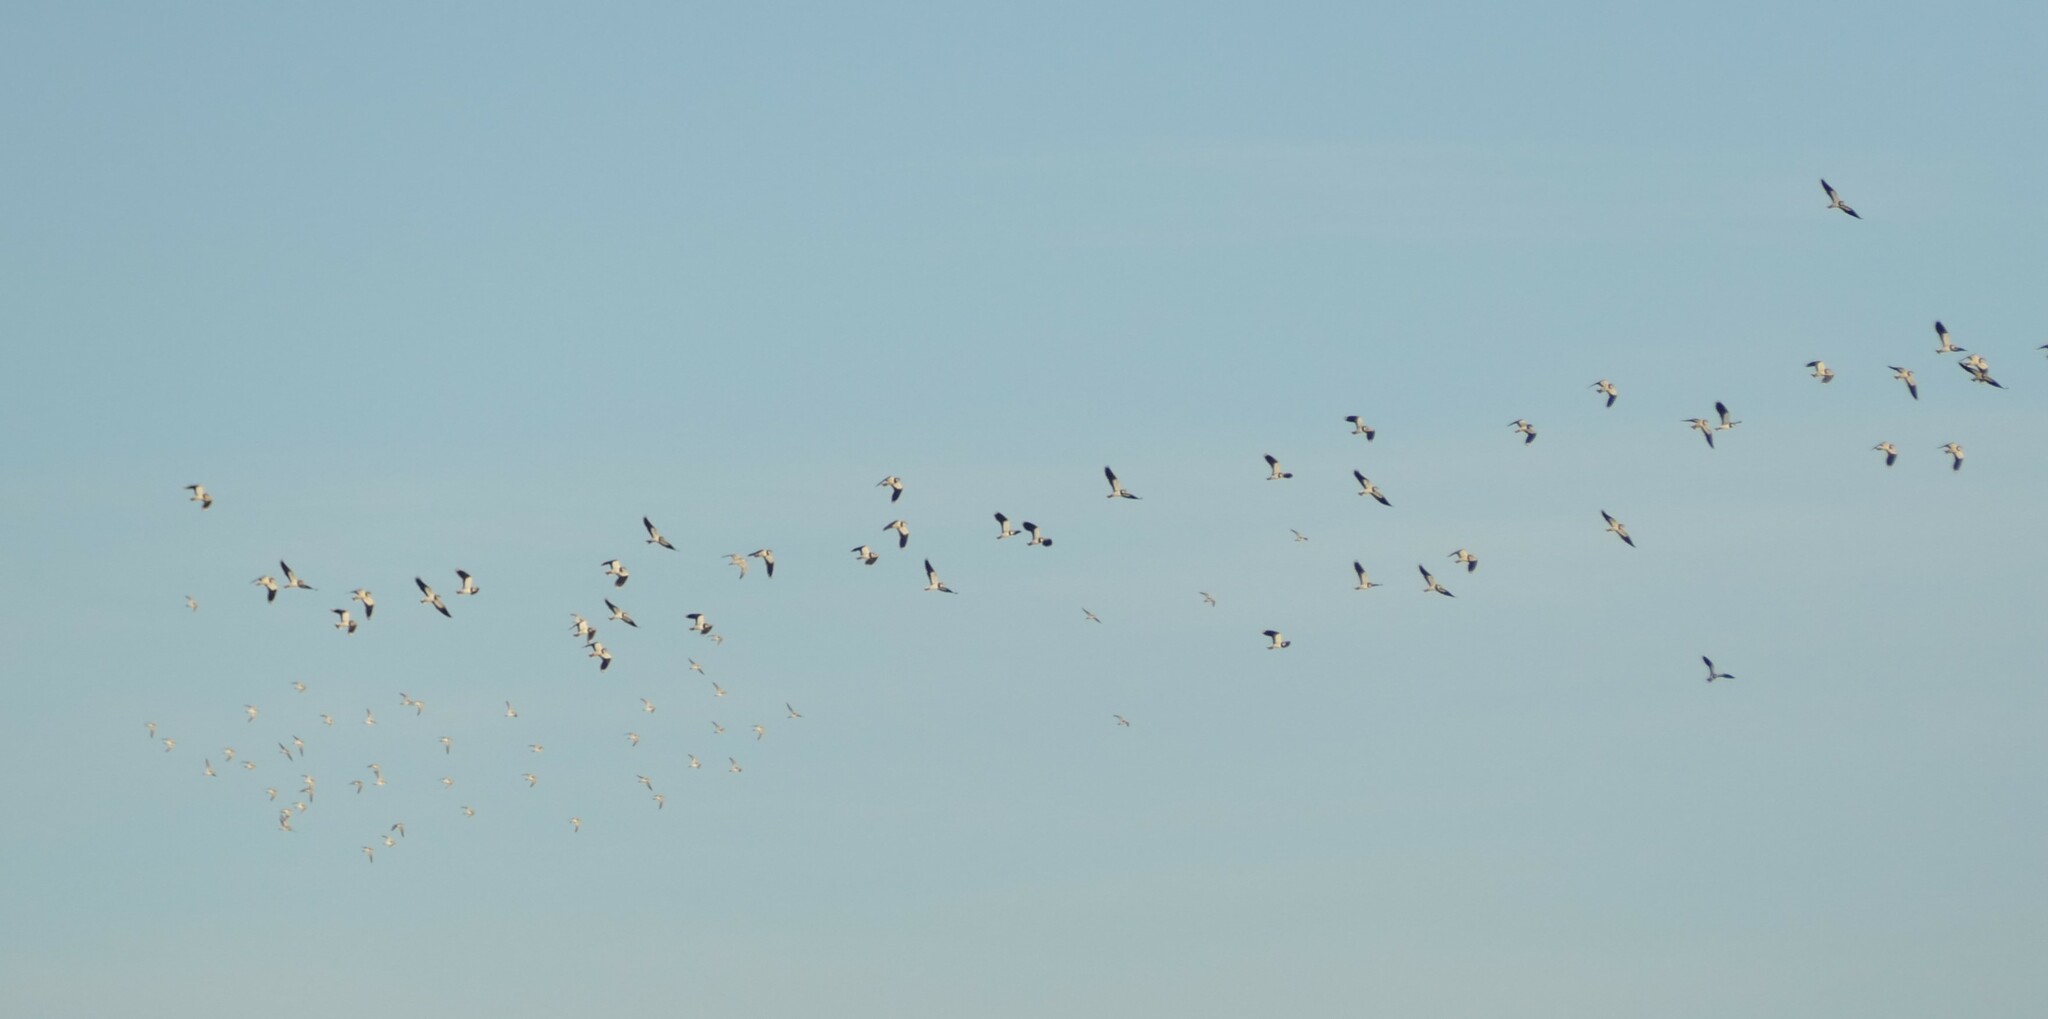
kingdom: Animalia
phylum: Chordata
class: Aves
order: Charadriiformes
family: Charadriidae
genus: Vanellus
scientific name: Vanellus vanellus
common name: Northern lapwing
